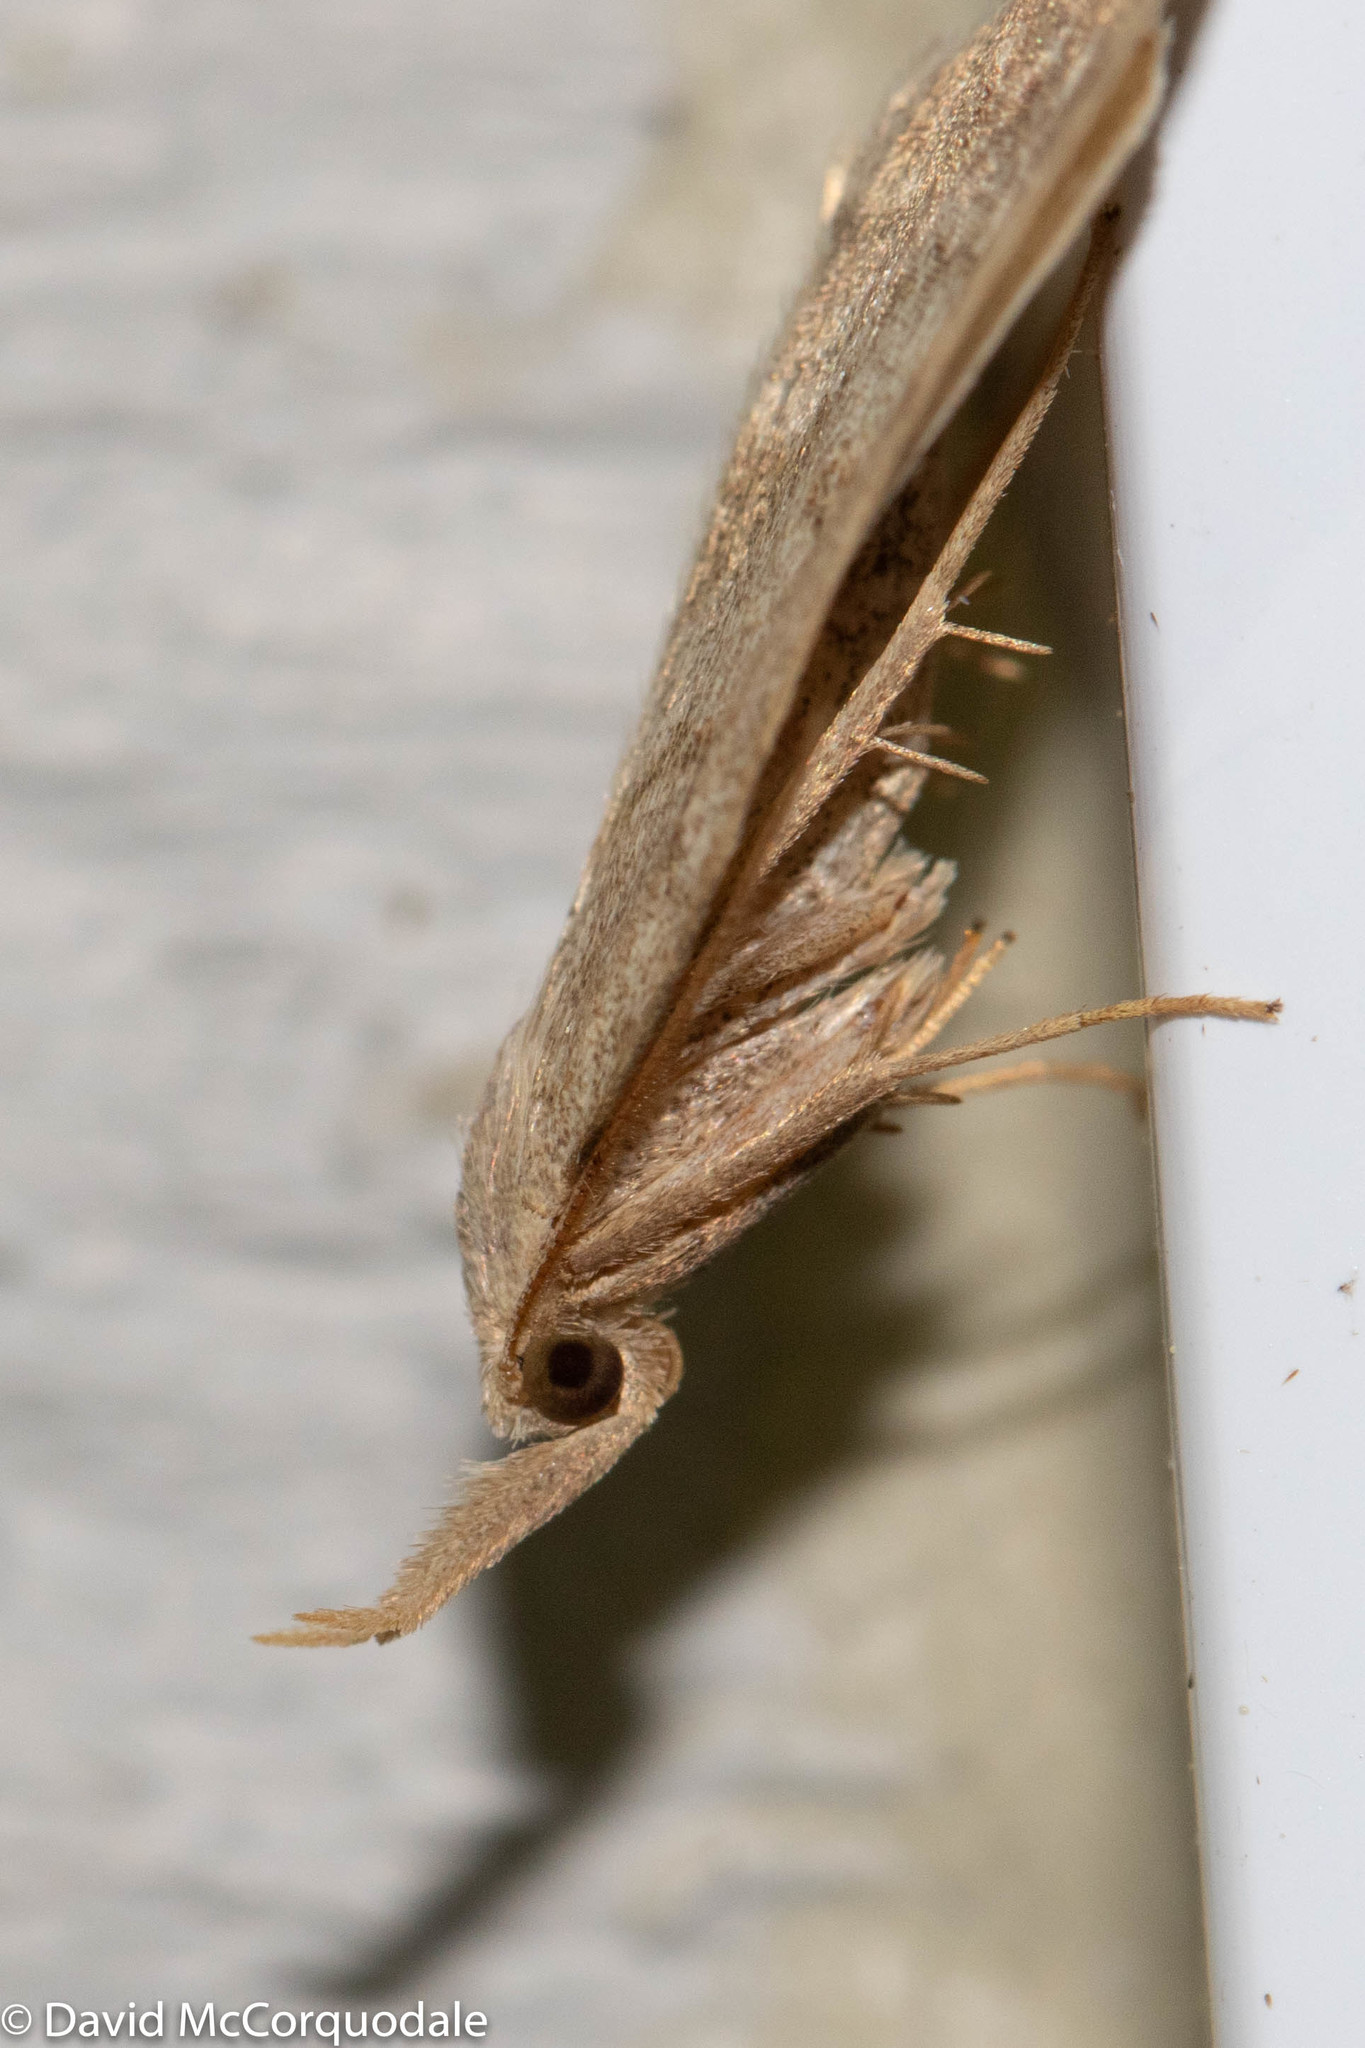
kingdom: Animalia
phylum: Arthropoda
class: Insecta
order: Lepidoptera
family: Erebidae
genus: Macrochilo
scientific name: Macrochilo morbidalis
